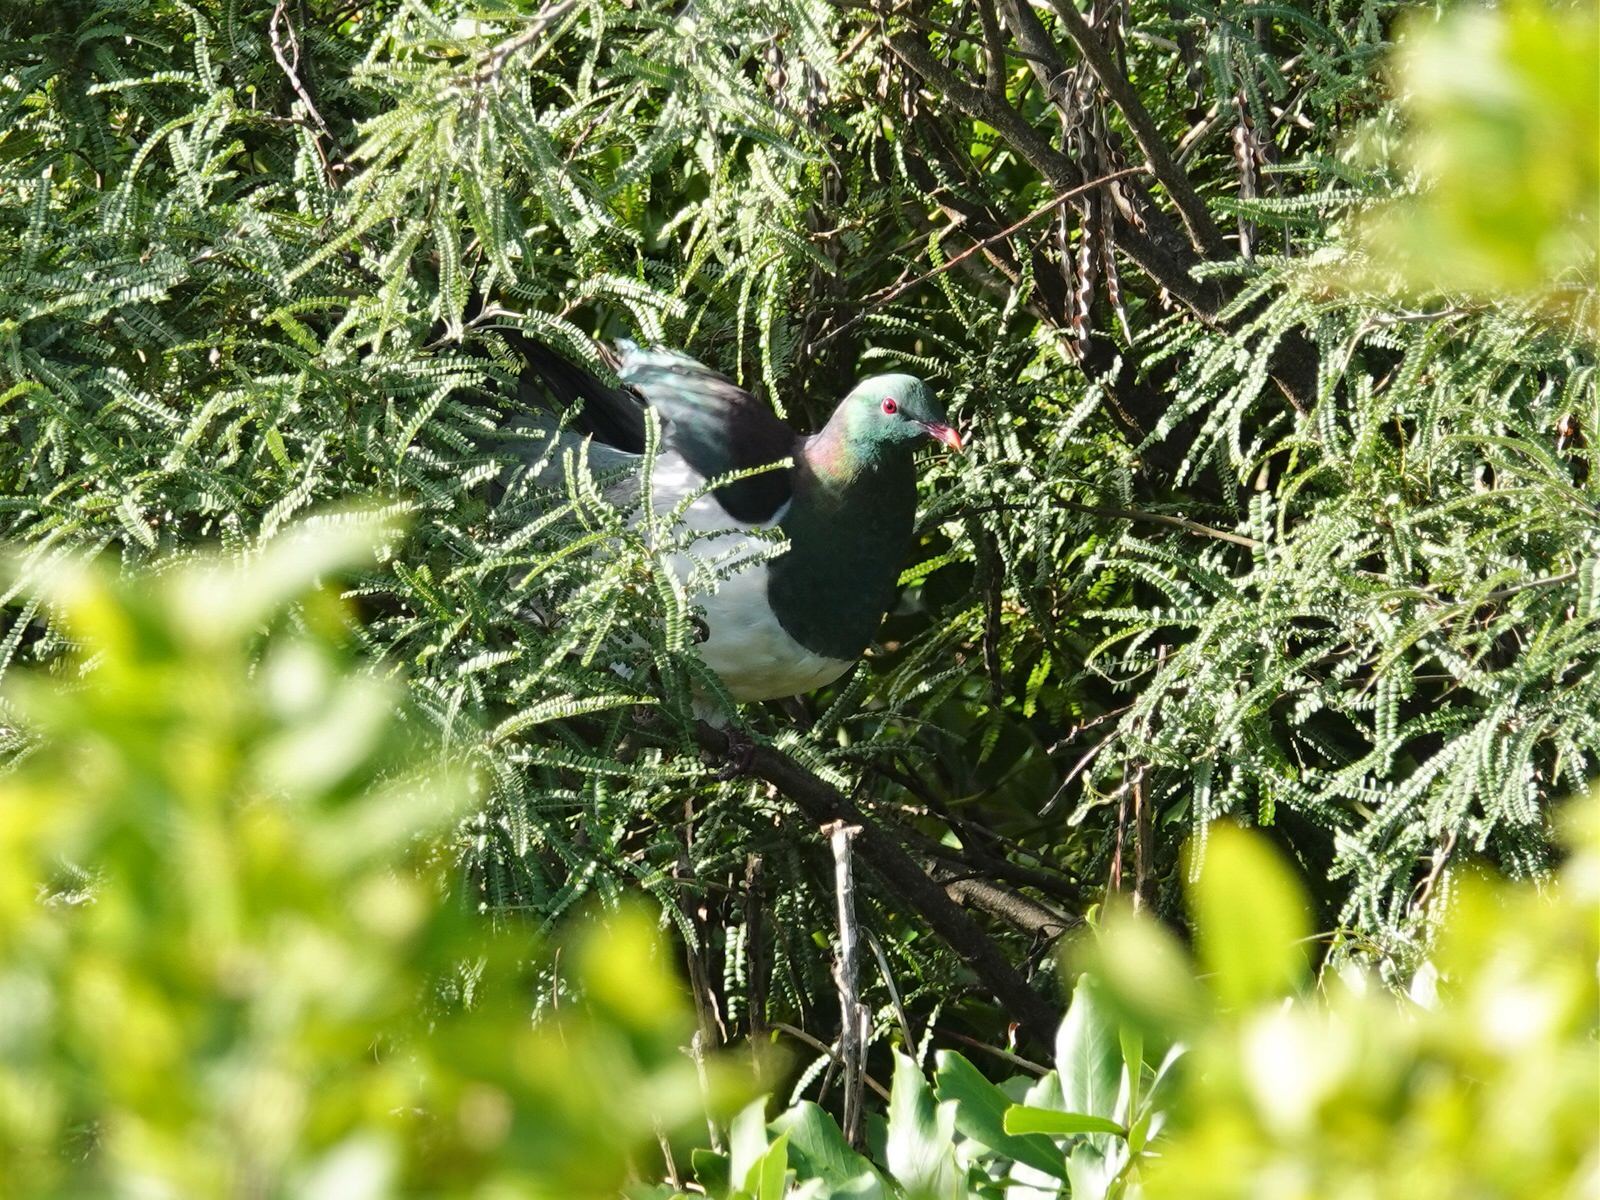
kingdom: Animalia
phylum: Chordata
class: Aves
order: Columbiformes
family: Columbidae
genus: Hemiphaga
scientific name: Hemiphaga novaeseelandiae
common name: New zealand pigeon
